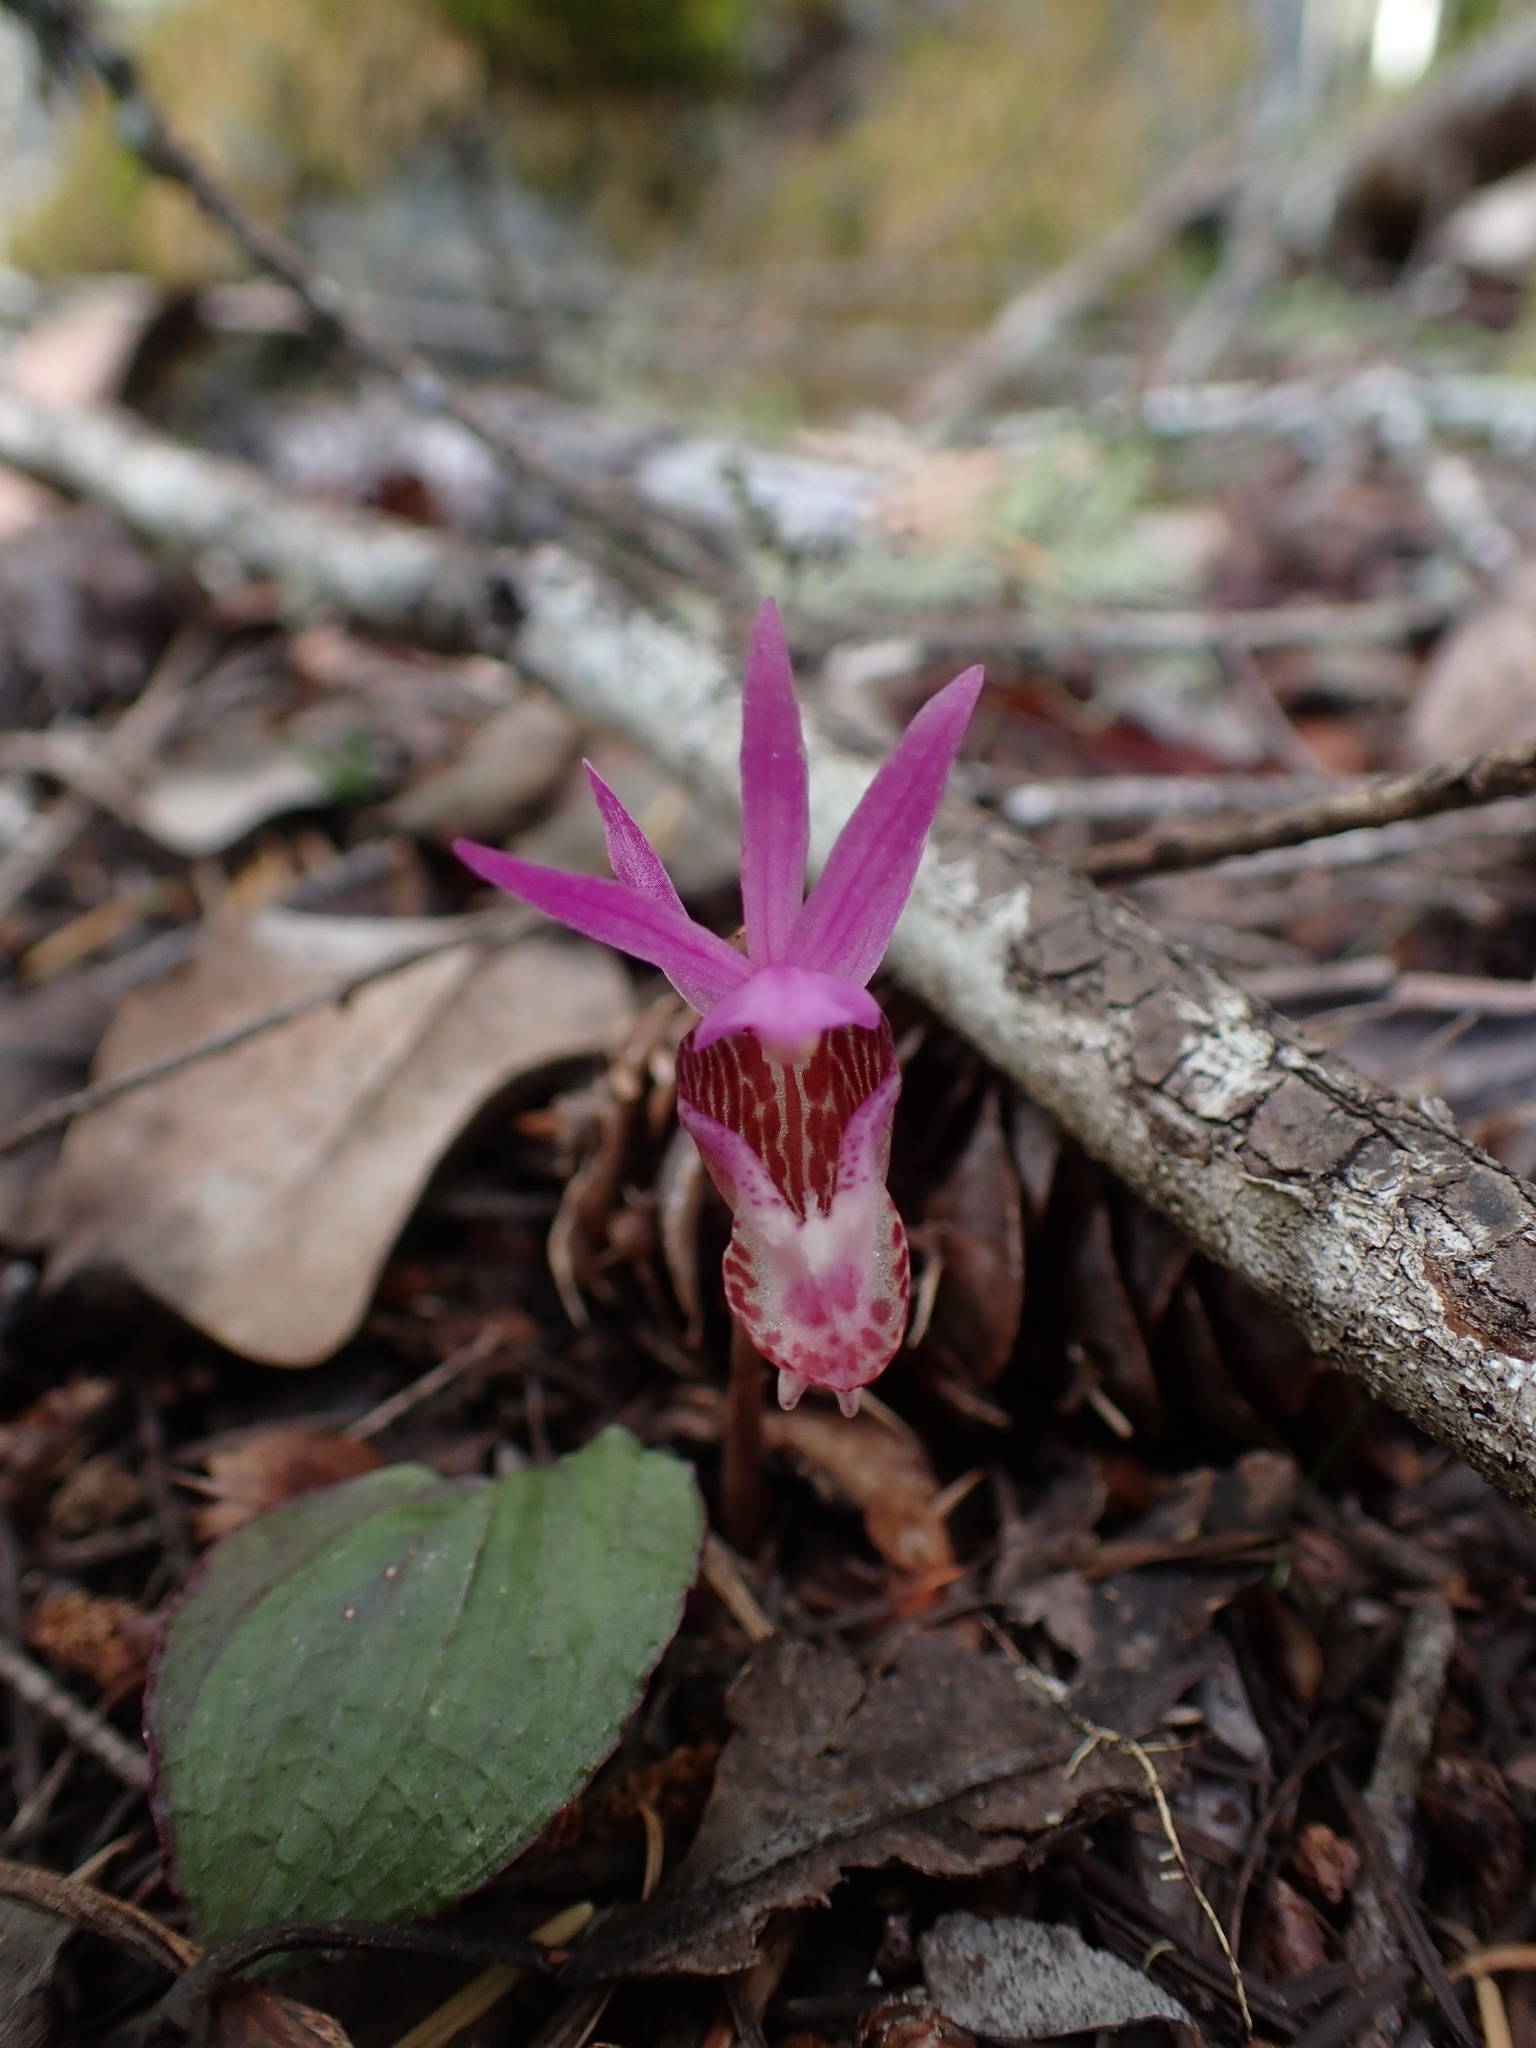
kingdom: Plantae
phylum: Tracheophyta
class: Liliopsida
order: Asparagales
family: Orchidaceae
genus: Calypso
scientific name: Calypso bulbosa
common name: Calypso
